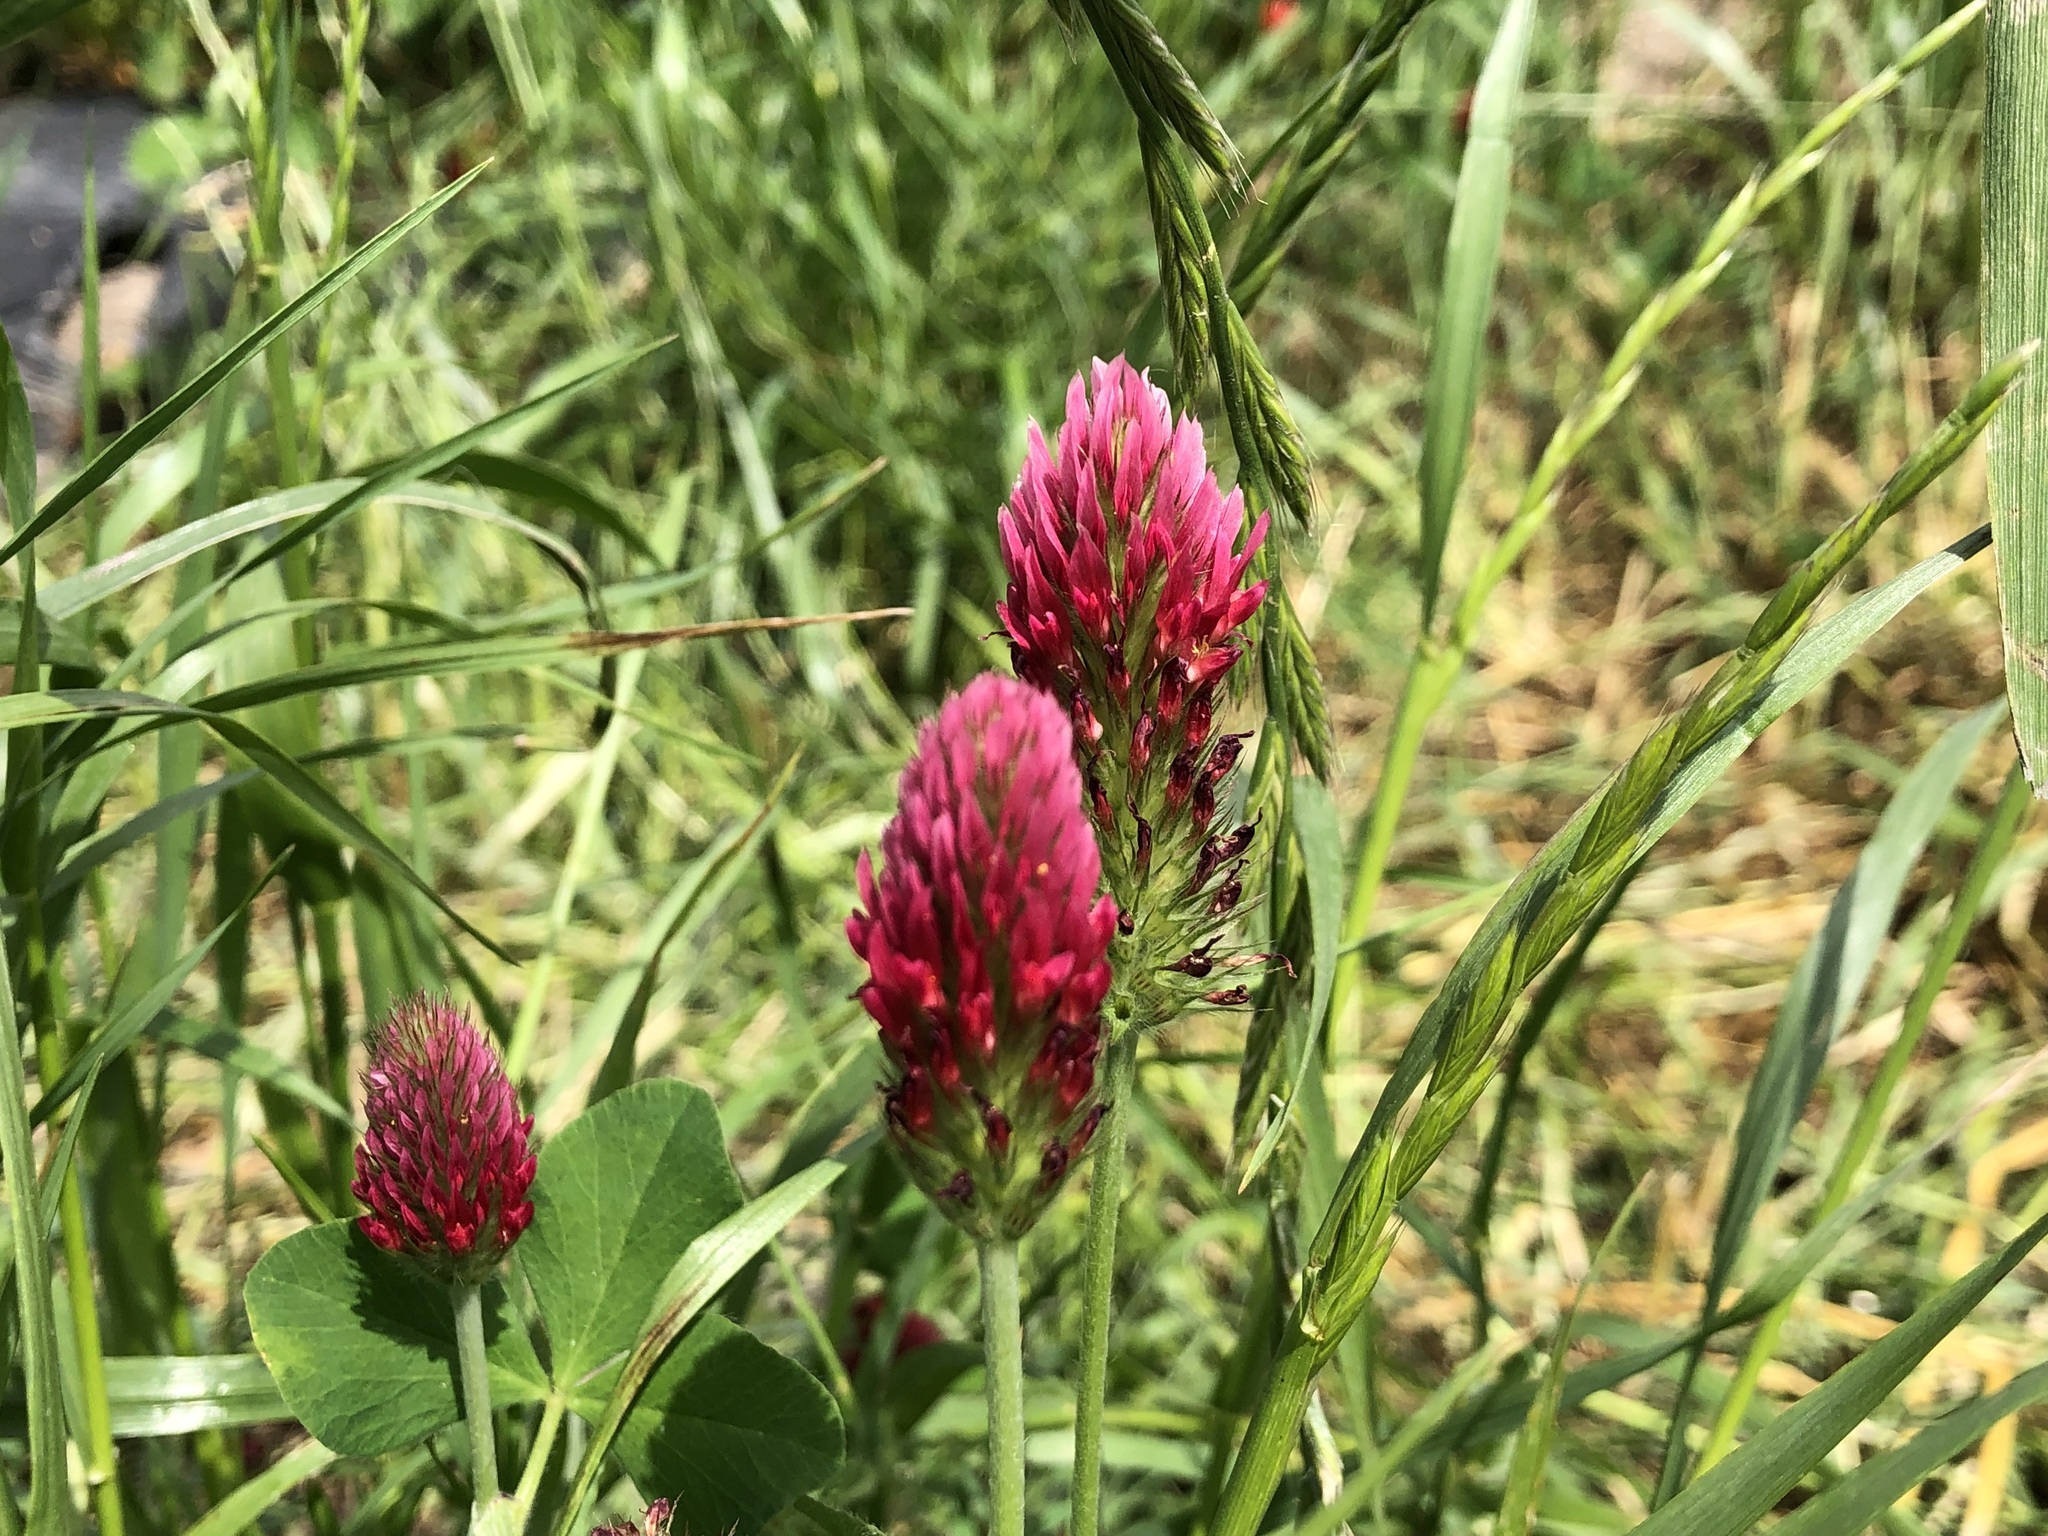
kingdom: Plantae
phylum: Tracheophyta
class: Magnoliopsida
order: Fabales
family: Fabaceae
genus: Trifolium
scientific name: Trifolium incarnatum
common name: Crimson clover
